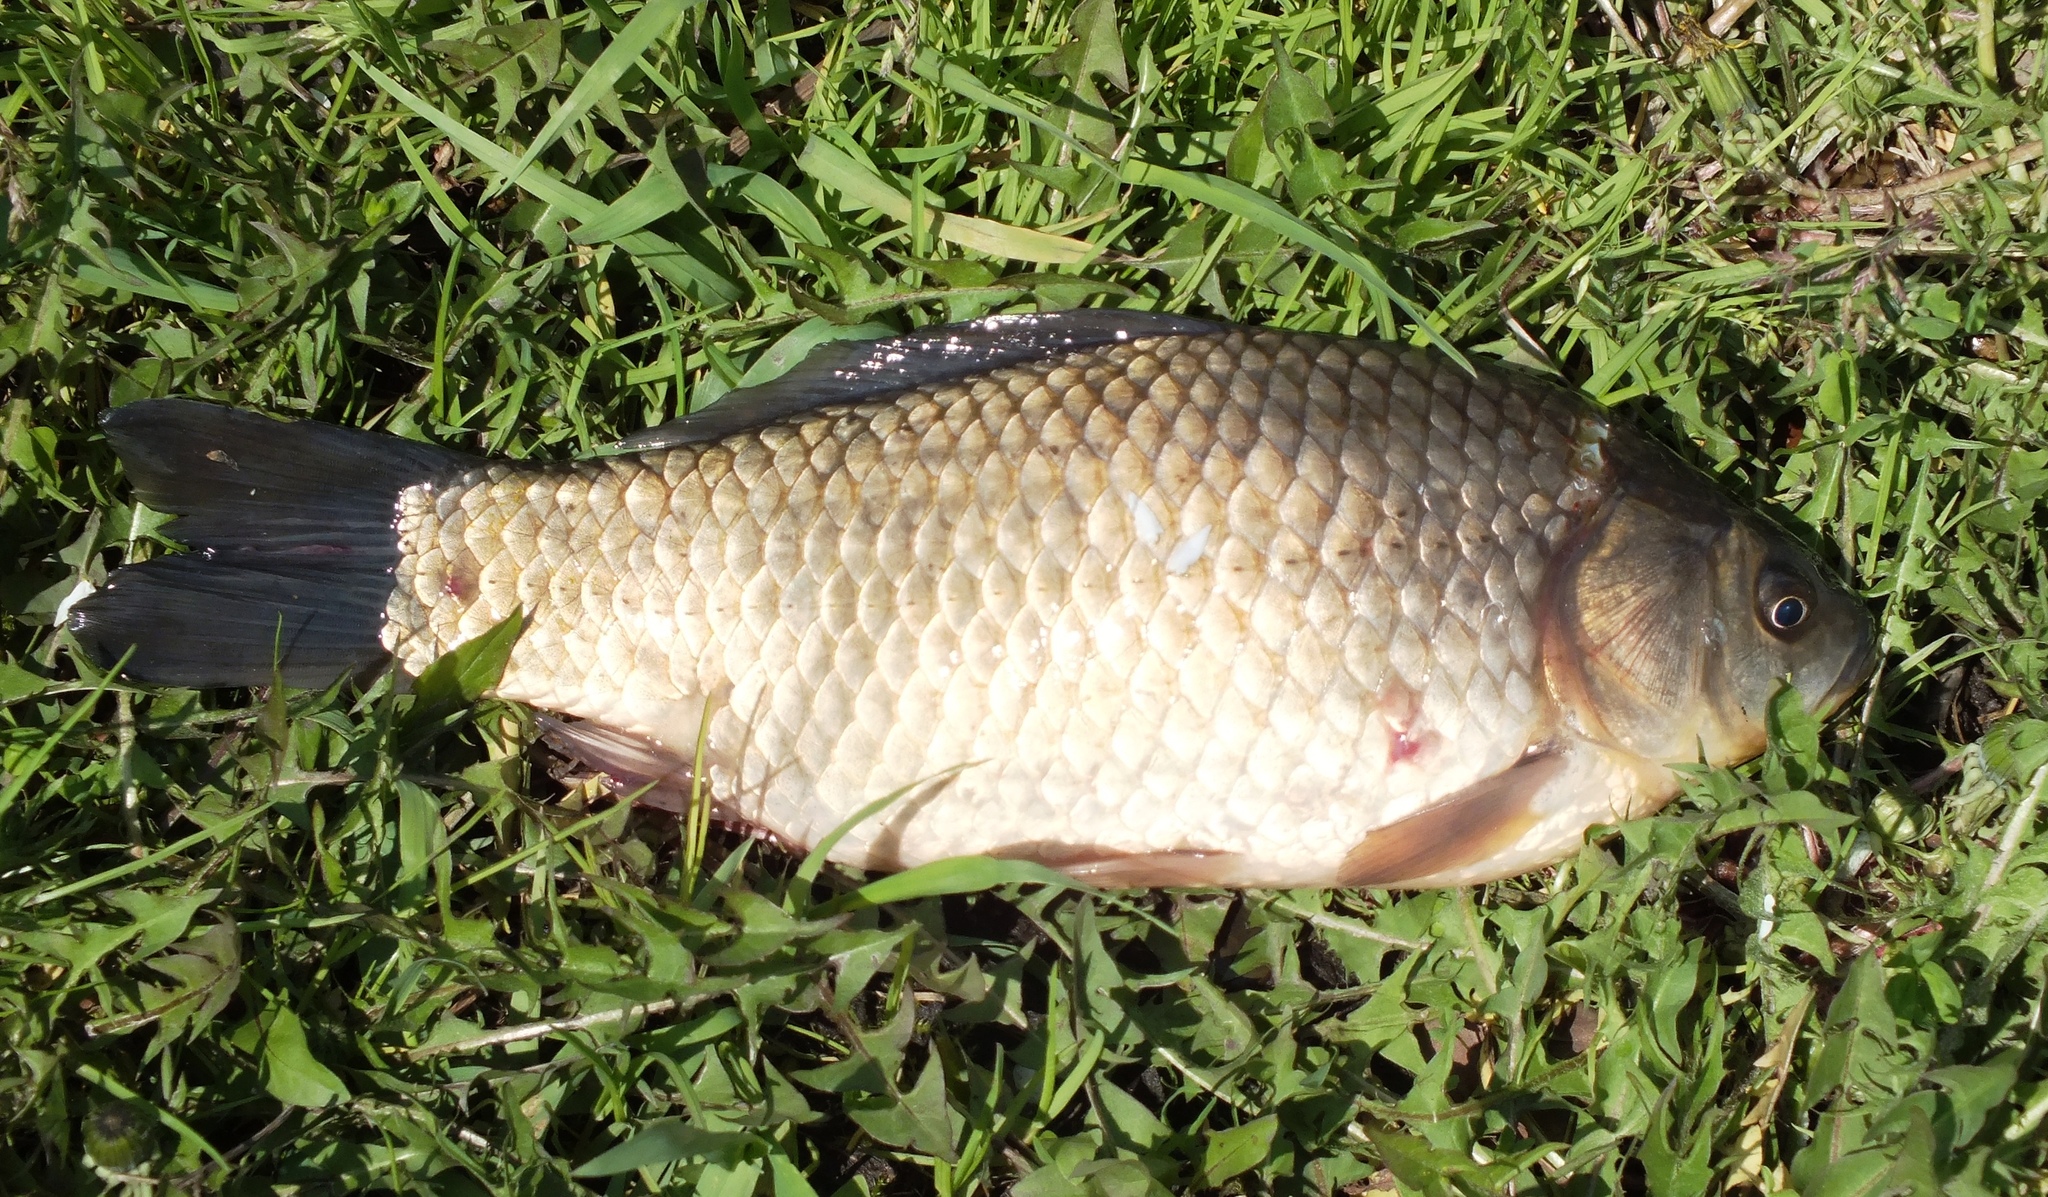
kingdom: Animalia
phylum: Chordata
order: Cypriniformes
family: Cyprinidae
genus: Carassius
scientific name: Carassius gibelio
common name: Prussian carp
